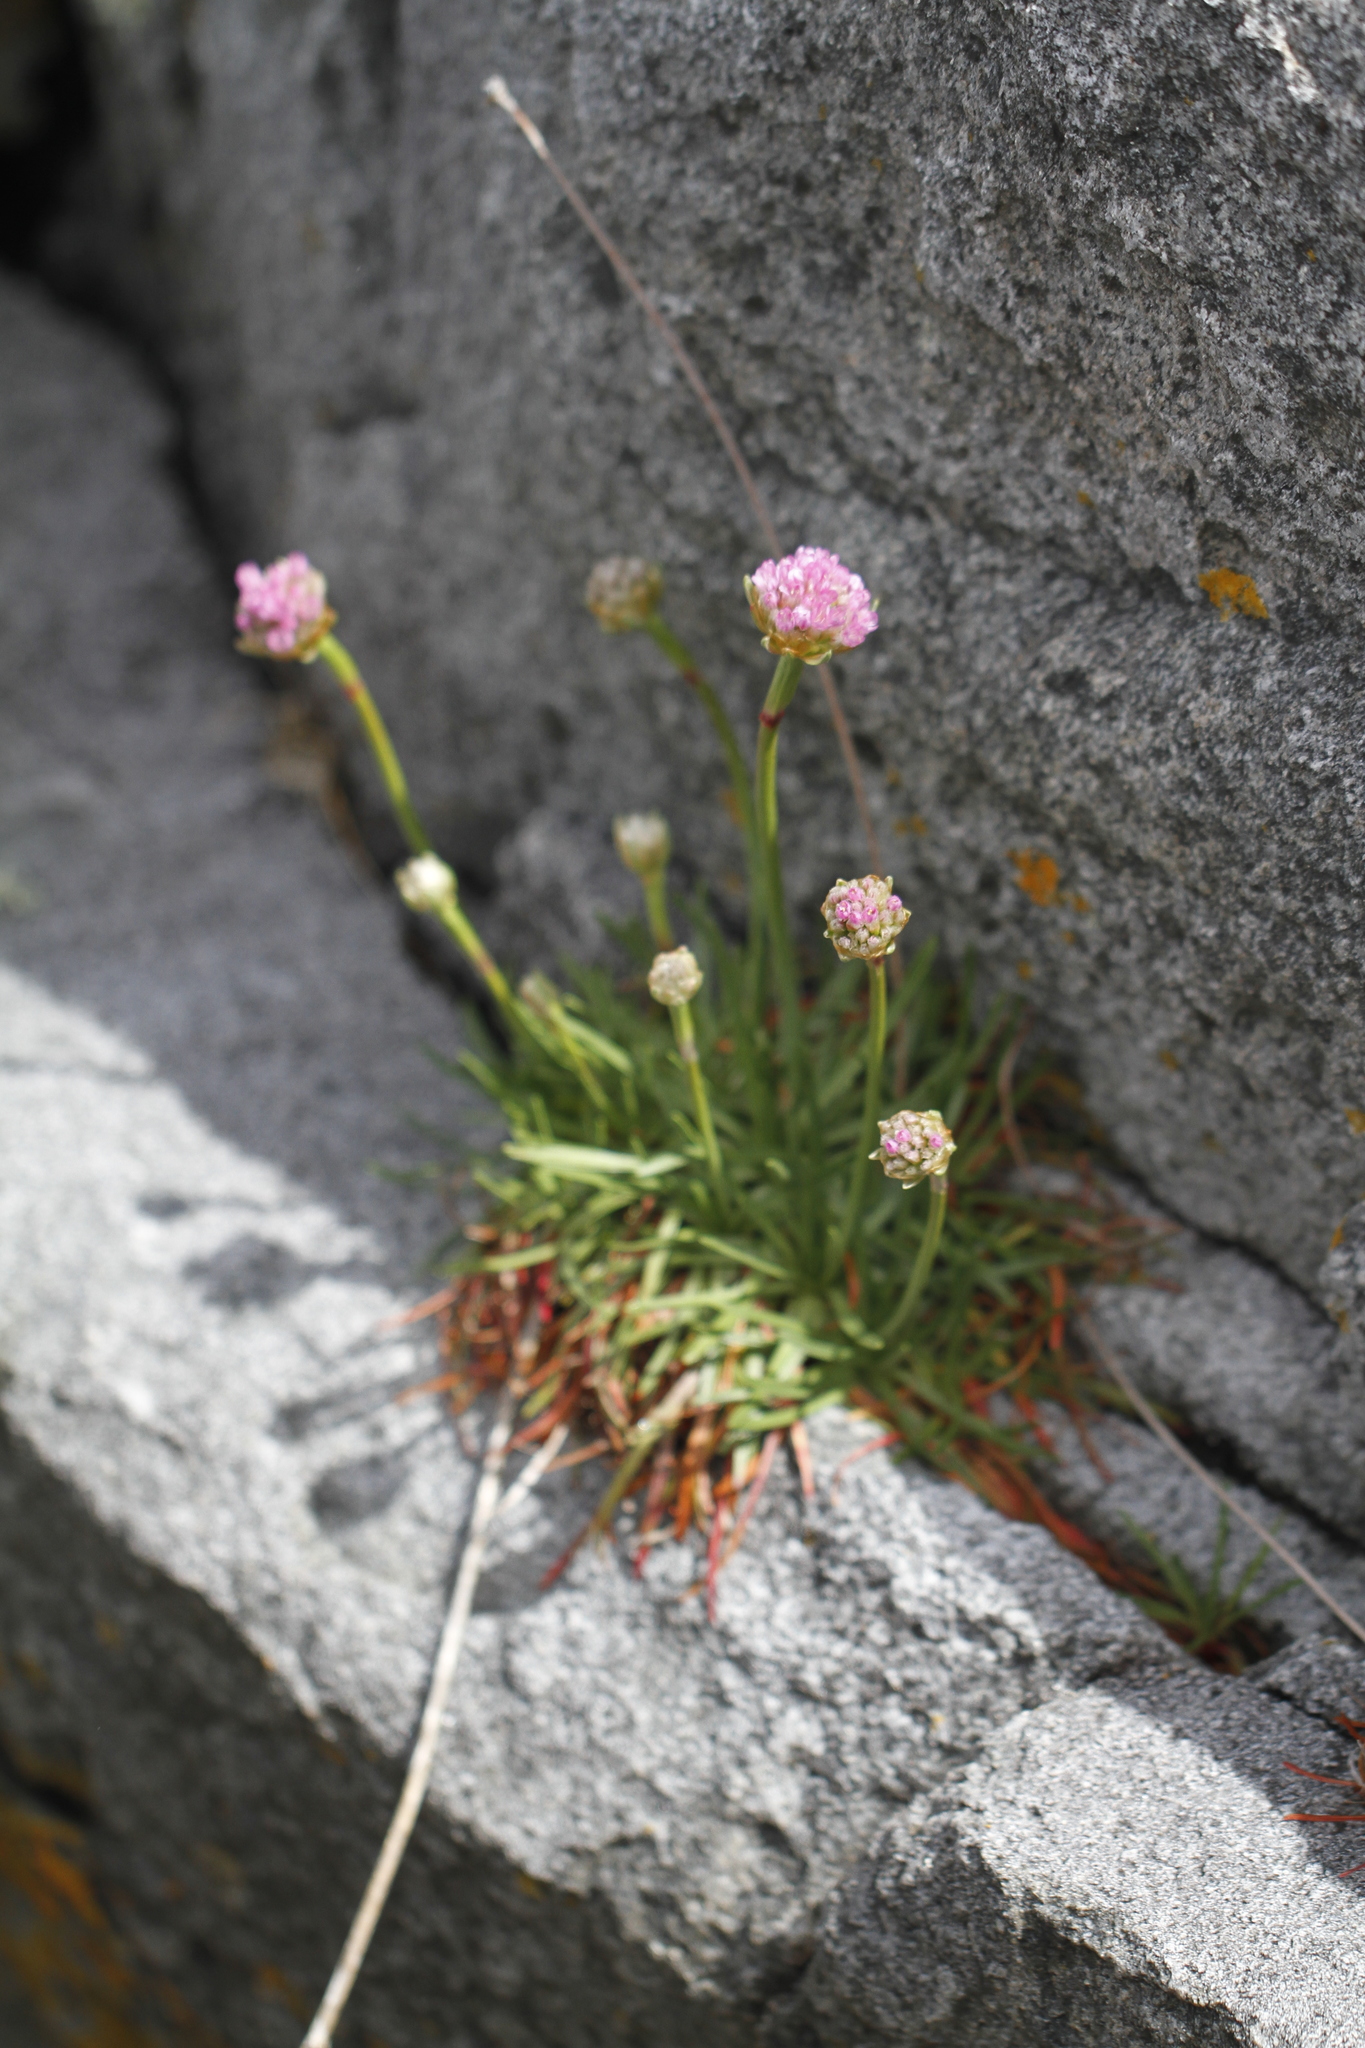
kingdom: Plantae
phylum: Tracheophyta
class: Magnoliopsida
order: Caryophyllales
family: Plumbaginaceae
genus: Armeria
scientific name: Armeria maritima
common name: Thrift
